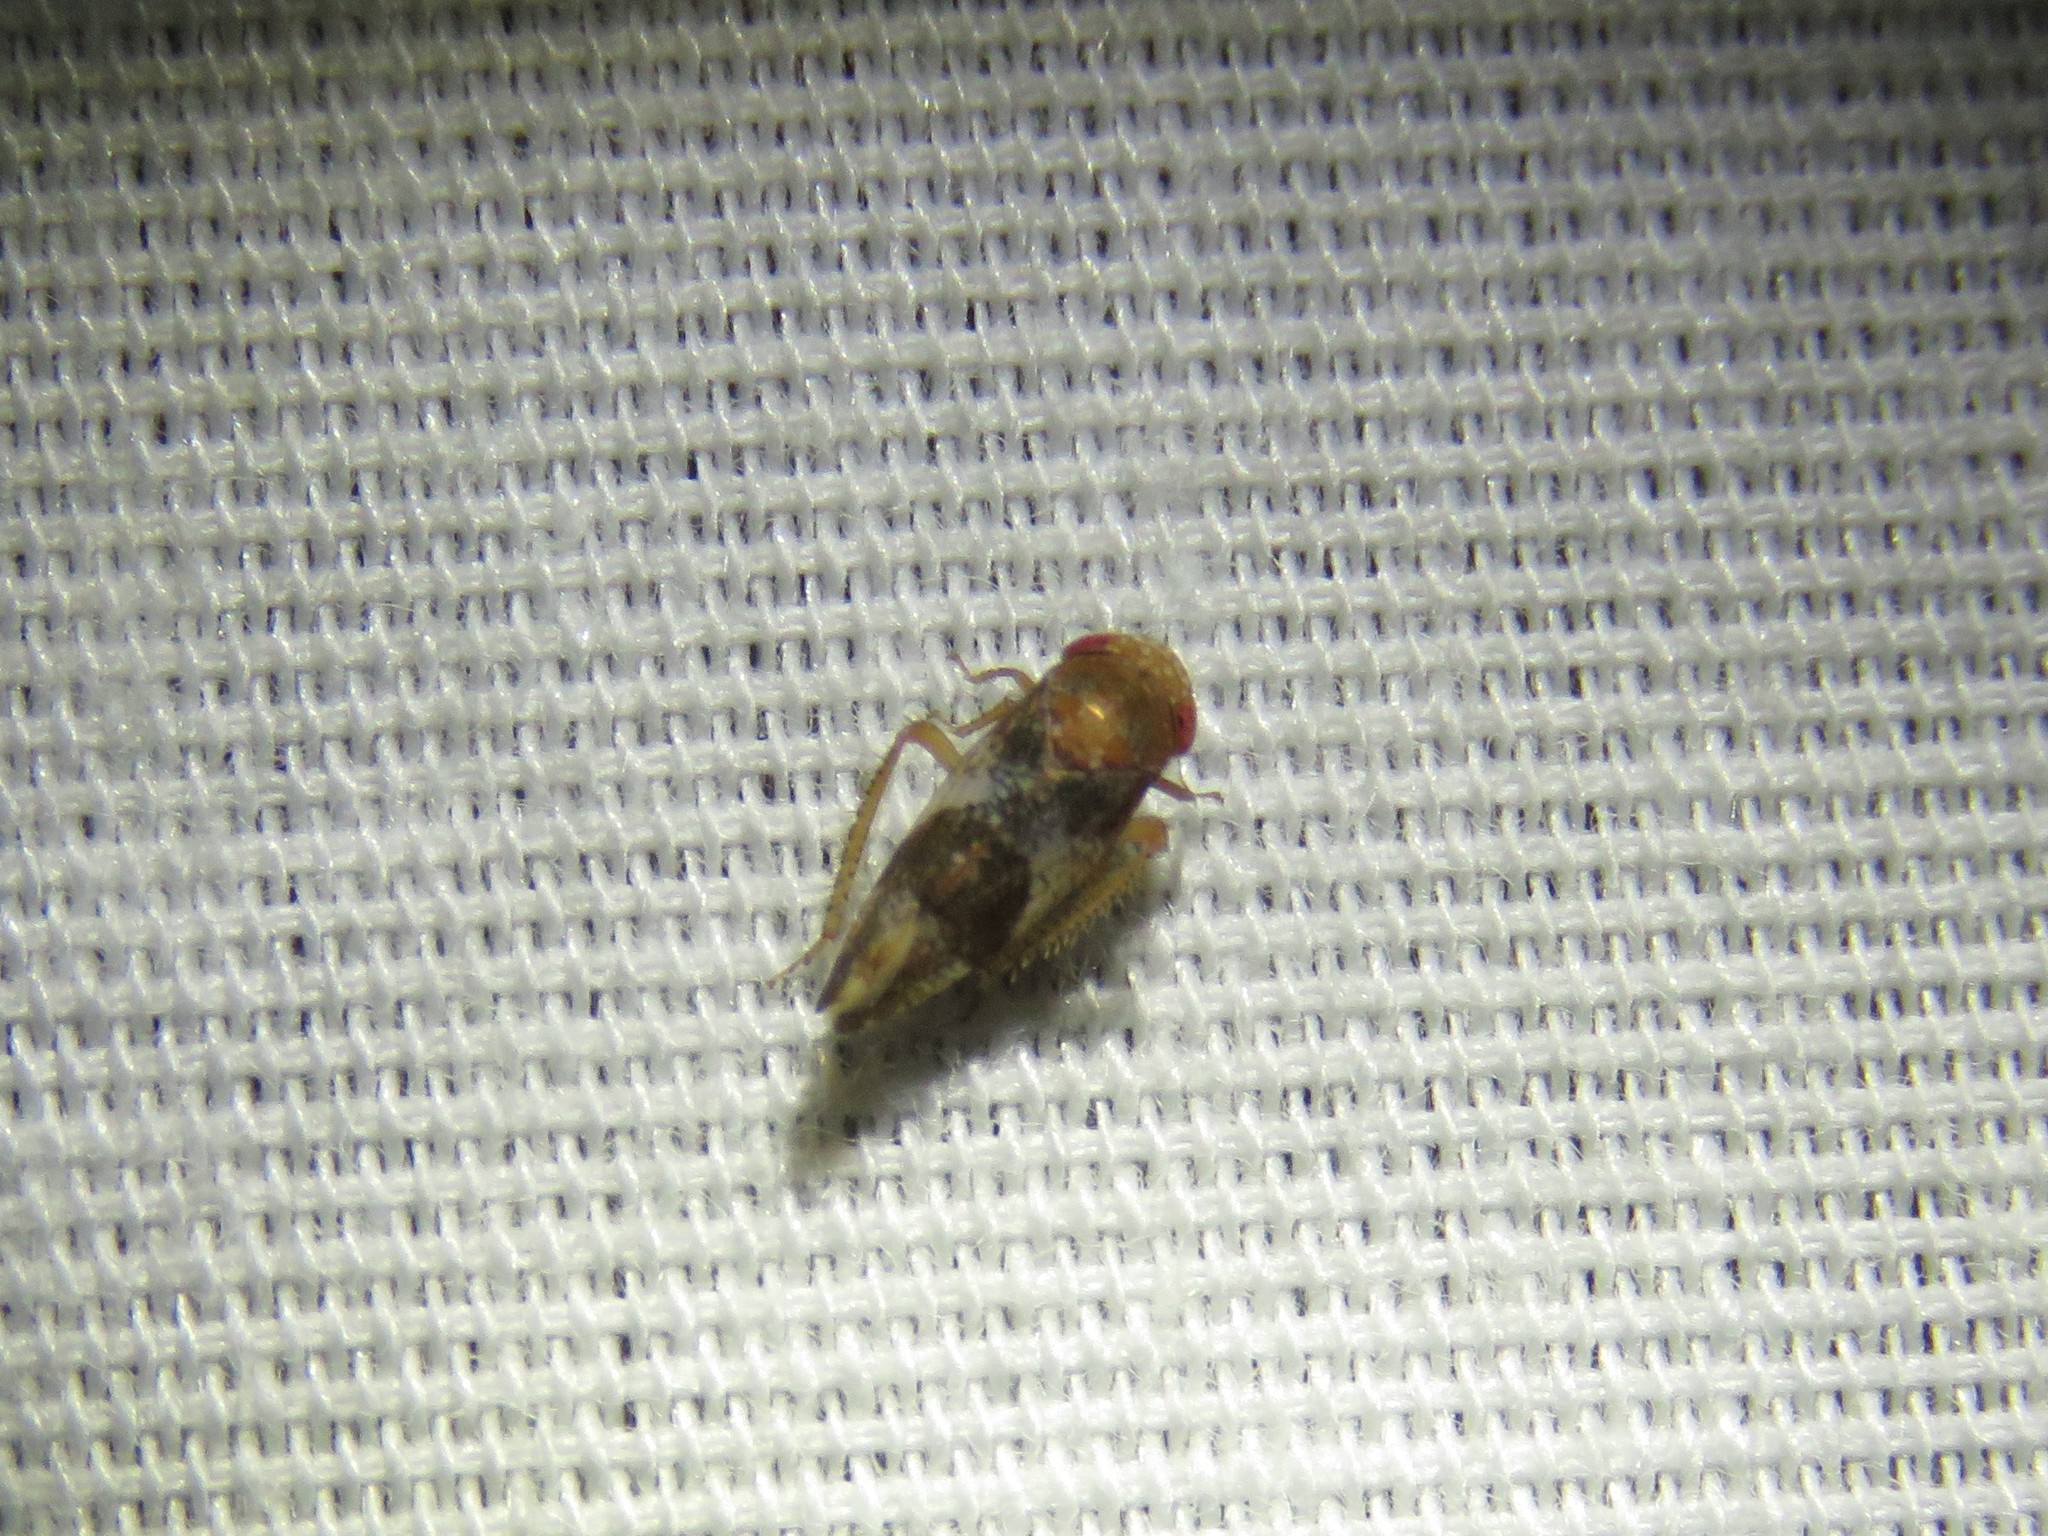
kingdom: Animalia
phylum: Arthropoda
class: Insecta
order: Hemiptera
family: Cicadellidae
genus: Norvellina
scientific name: Norvellina helenae
